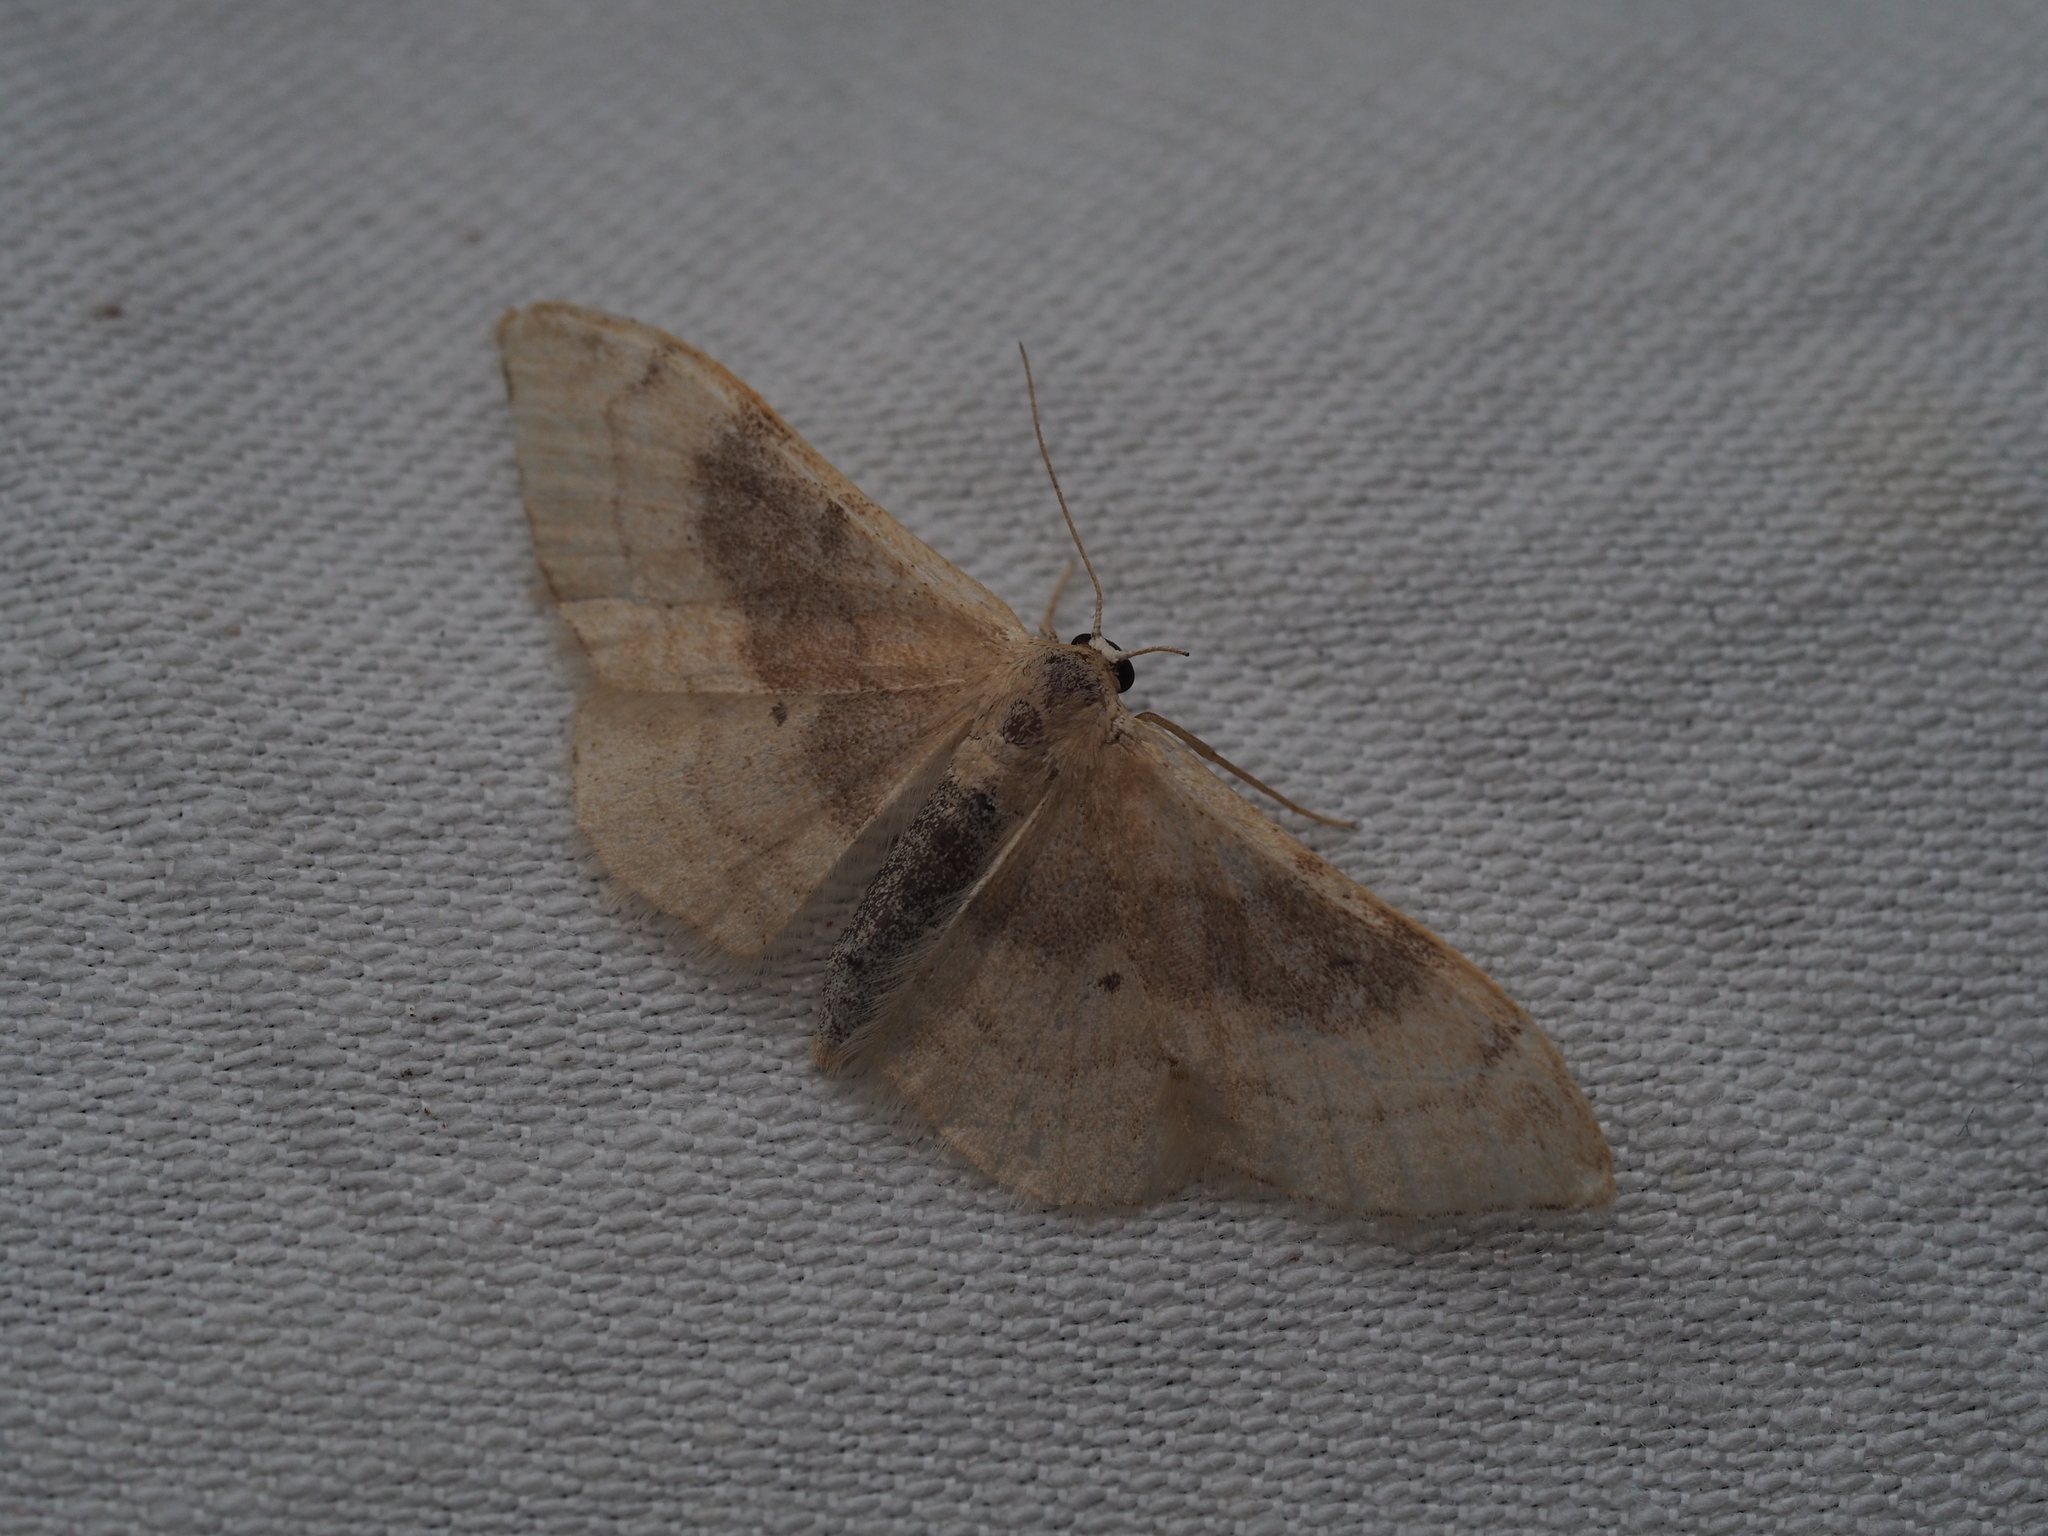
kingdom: Animalia
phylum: Arthropoda
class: Insecta
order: Lepidoptera
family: Geometridae
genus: Idaea
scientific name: Idaea degeneraria
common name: Portland ribbon wave
